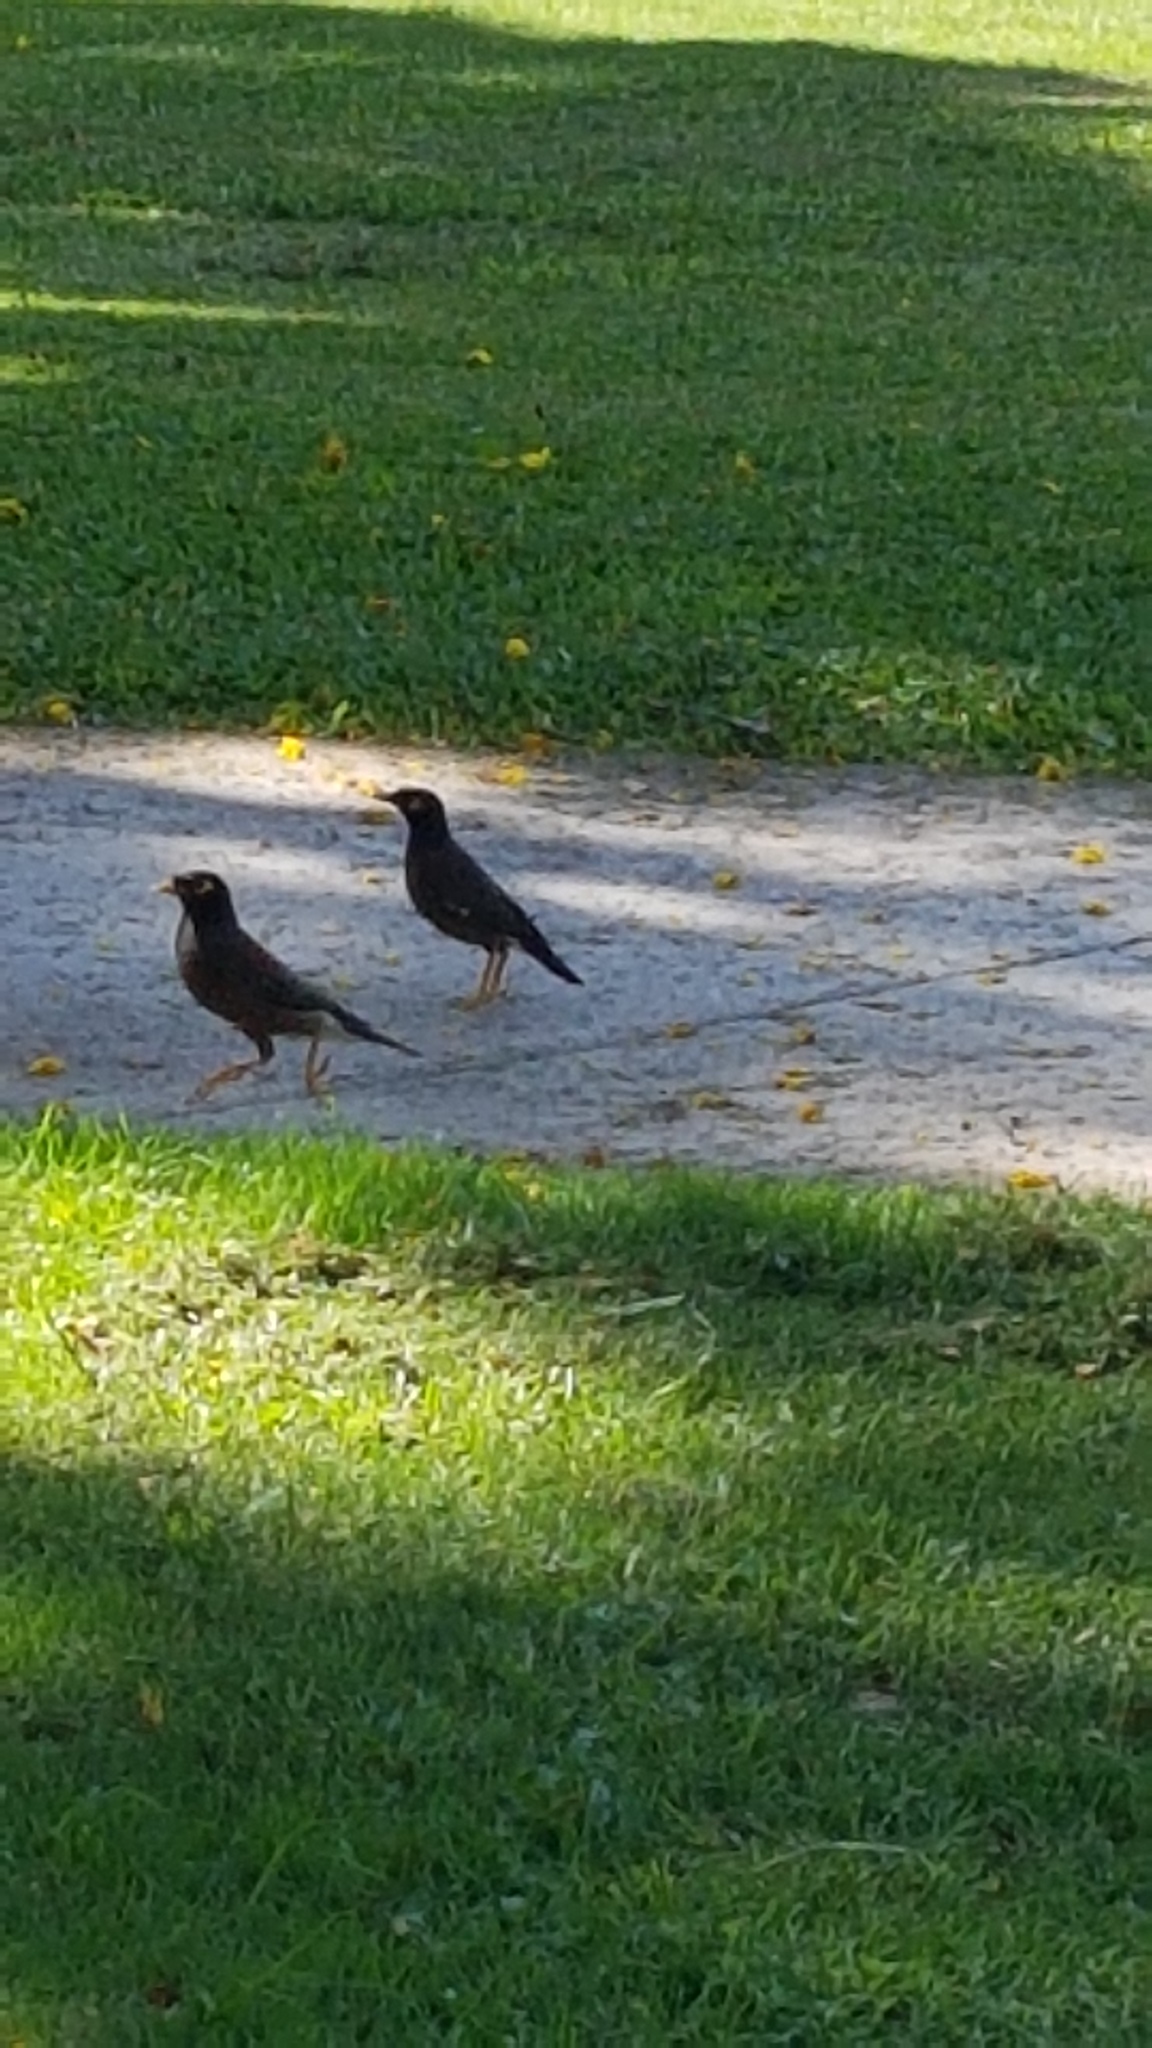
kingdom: Animalia
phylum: Chordata
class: Aves
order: Passeriformes
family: Sturnidae
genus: Acridotheres
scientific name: Acridotheres tristis
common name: Common myna
